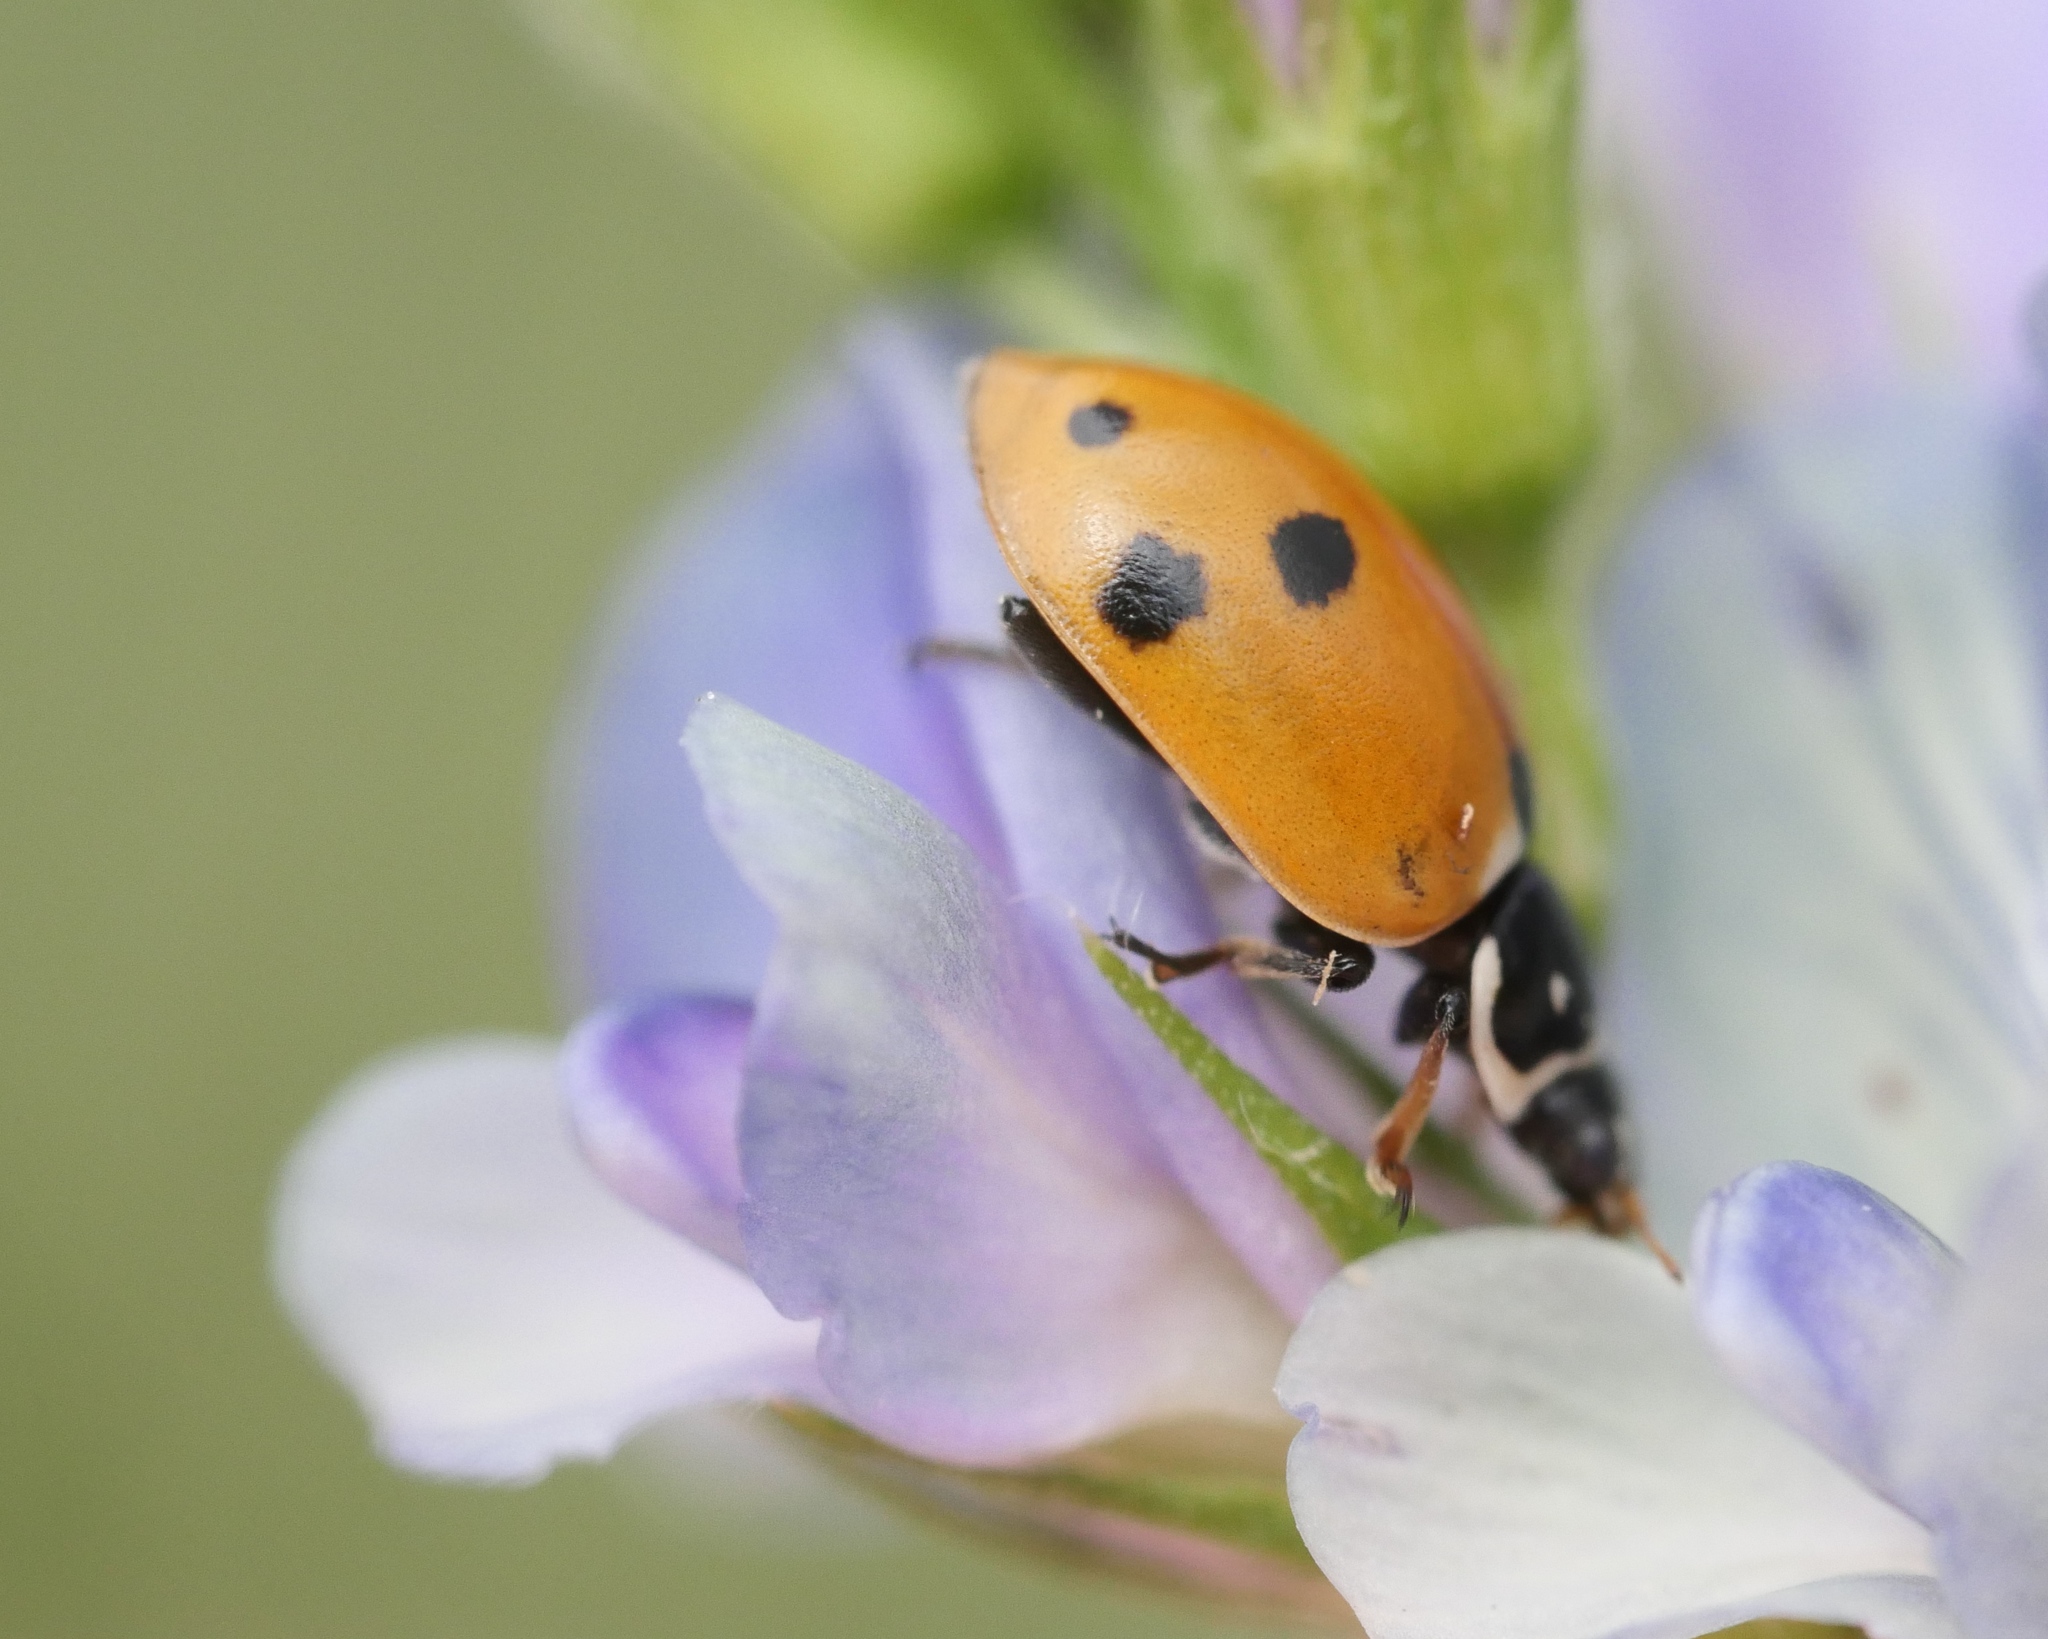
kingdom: Animalia
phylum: Arthropoda
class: Insecta
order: Coleoptera
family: Coccinellidae
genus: Hippodamia
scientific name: Hippodamia variegata
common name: Ladybird beetle
